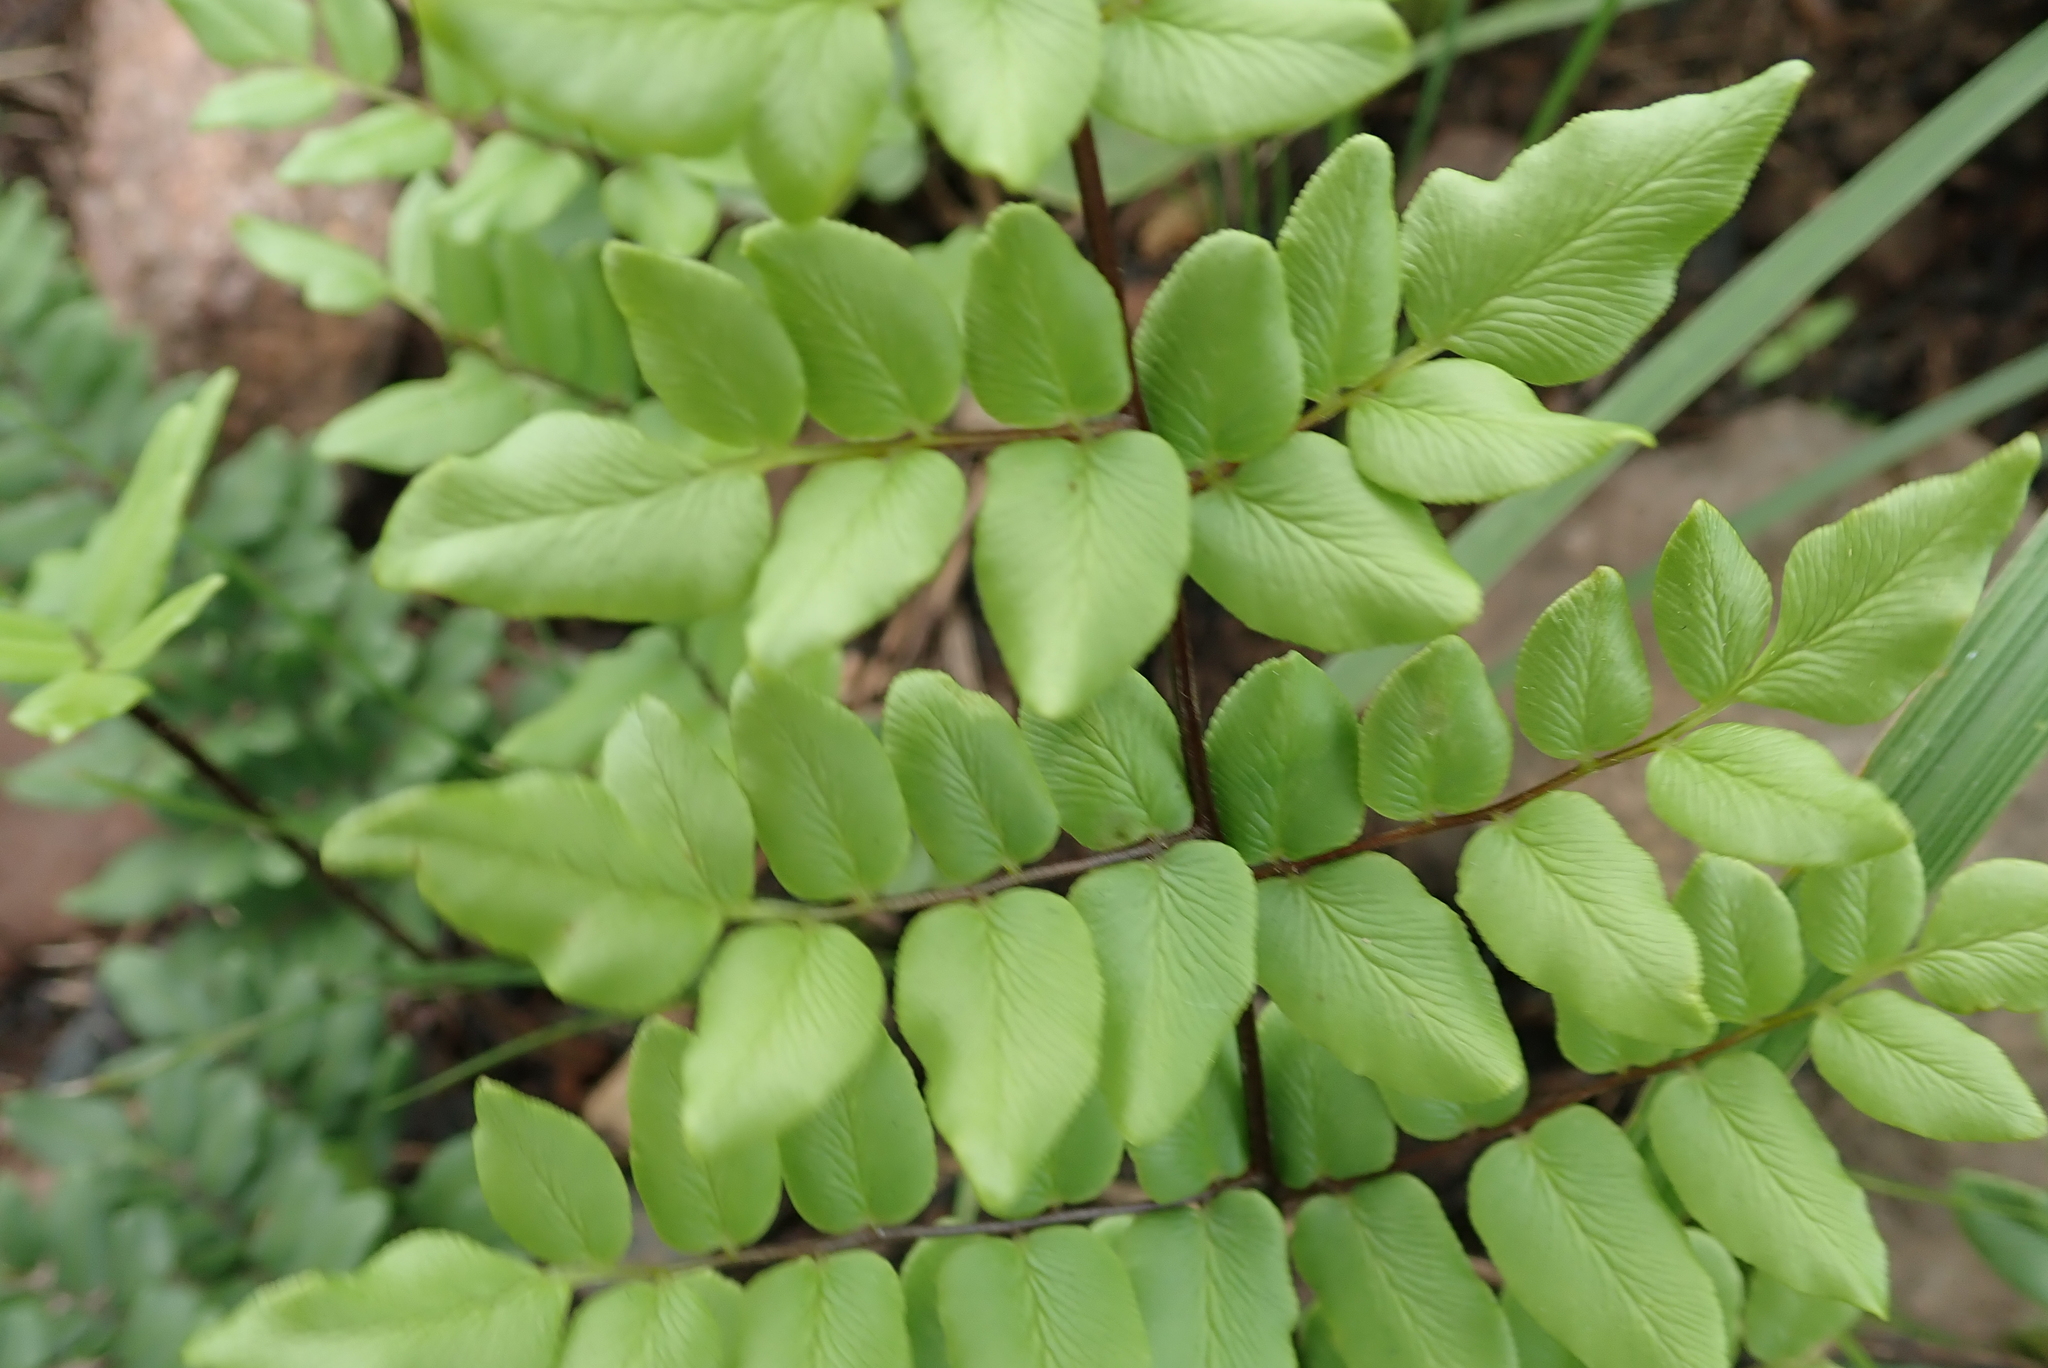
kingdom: Plantae
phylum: Tracheophyta
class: Polypodiopsida
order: Polypodiales
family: Pteridaceae
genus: Cheilanthes
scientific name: Cheilanthes viridis
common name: Green cliffbrake
